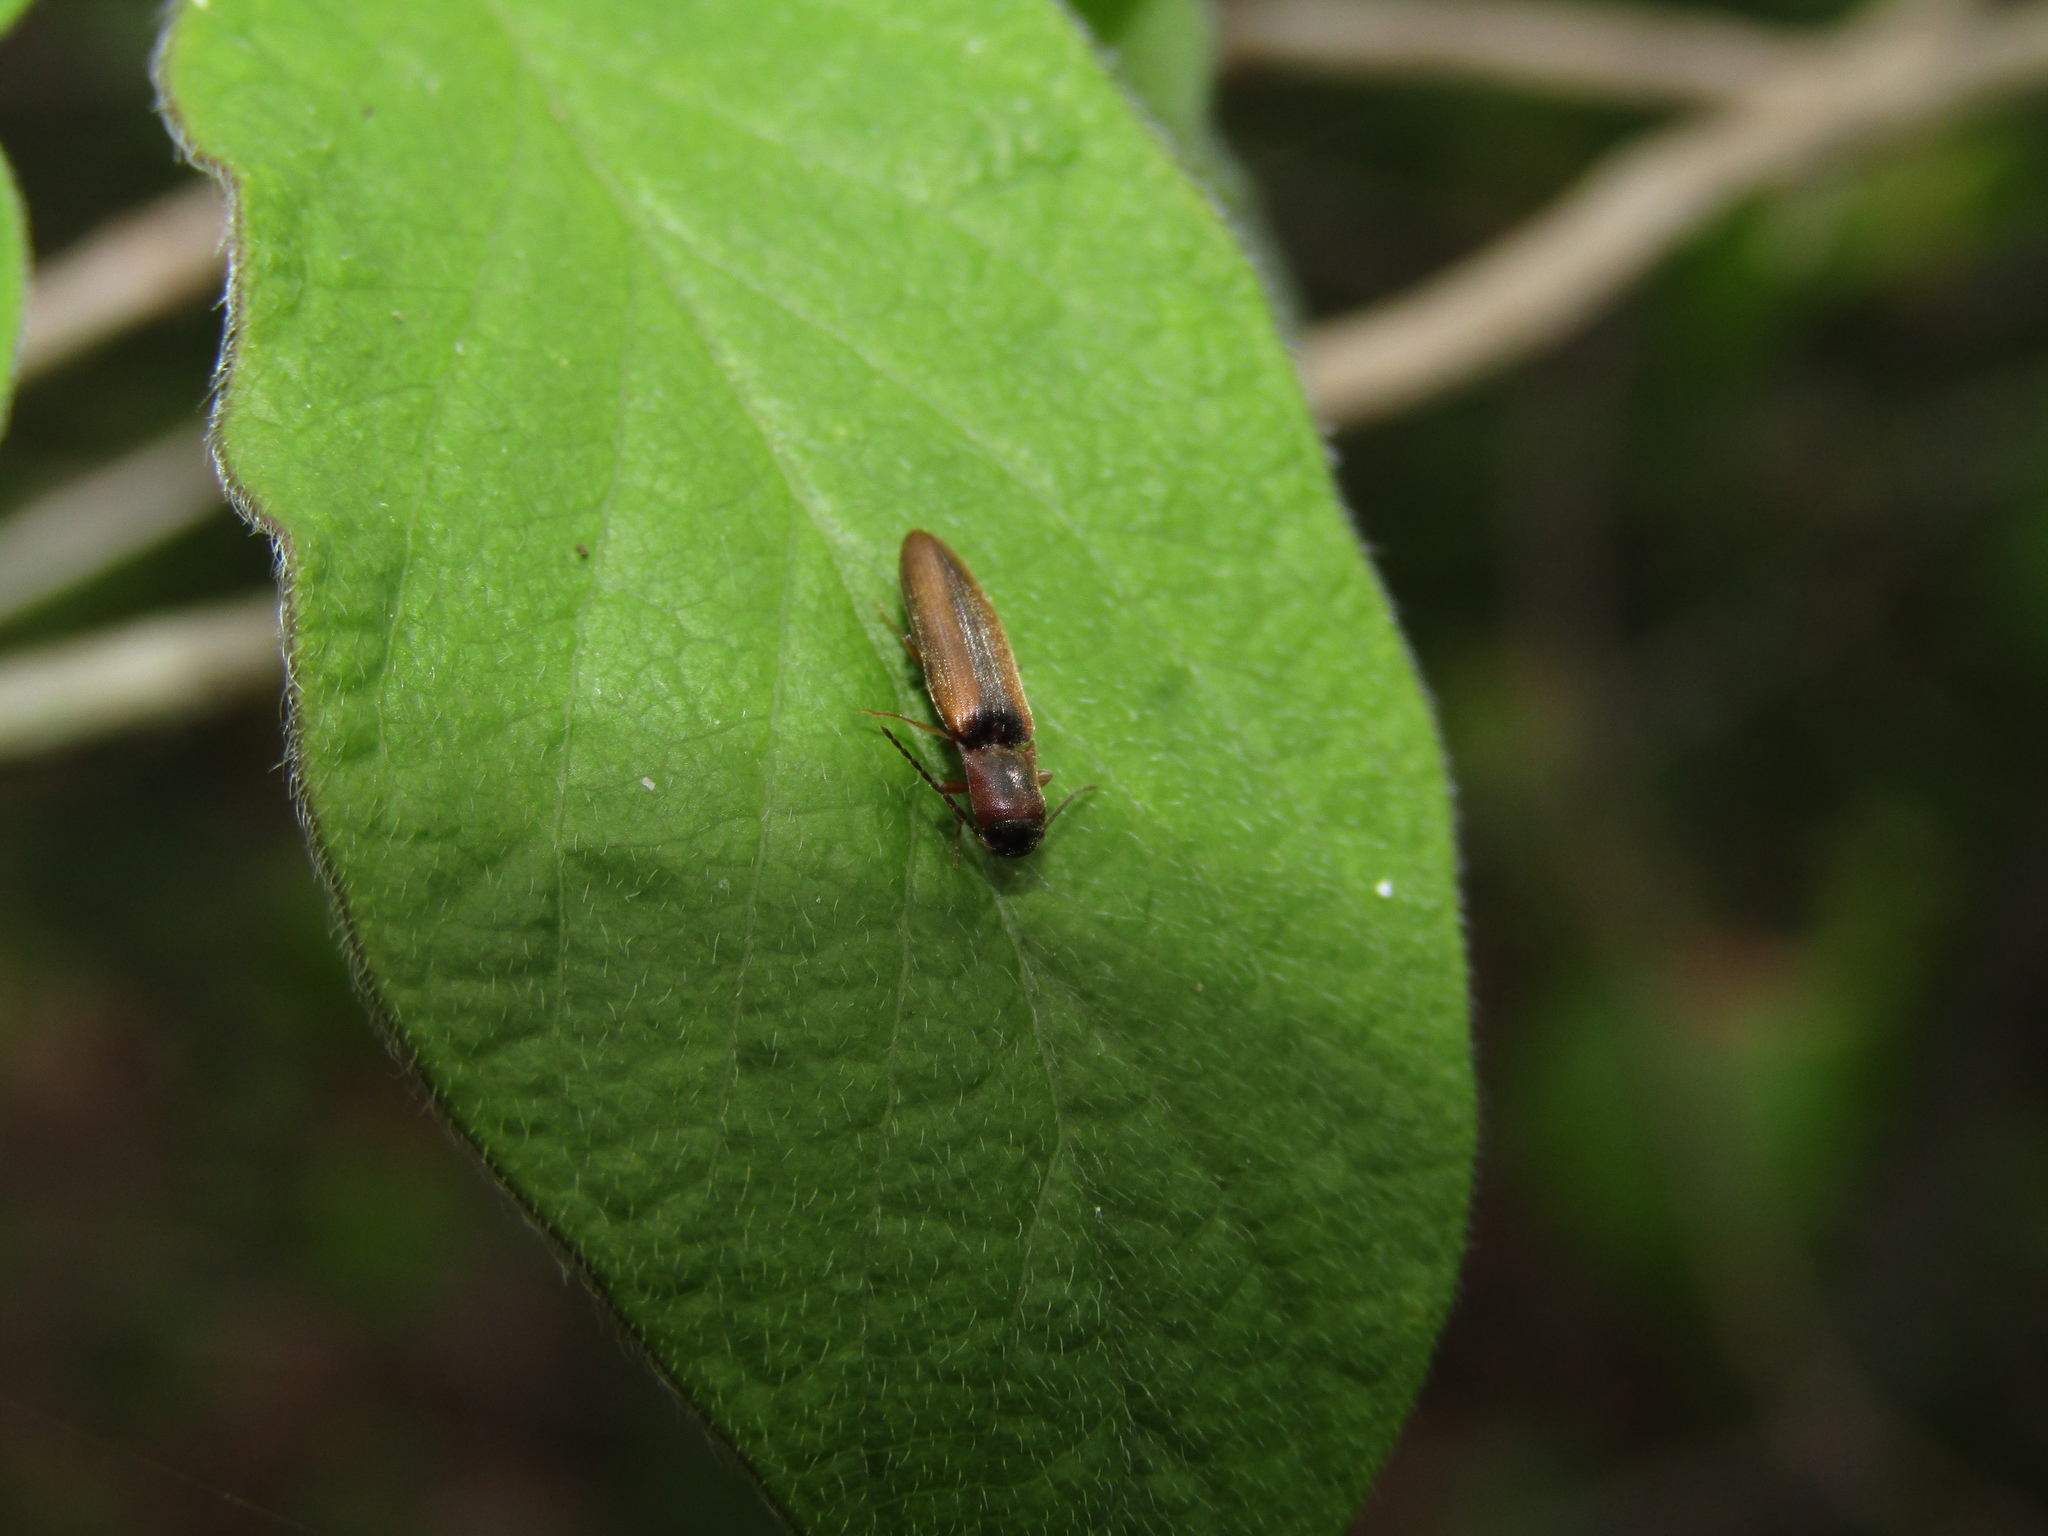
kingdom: Animalia
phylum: Arthropoda
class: Insecta
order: Coleoptera
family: Elateridae
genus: Dalopius
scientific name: Dalopius marginatus
